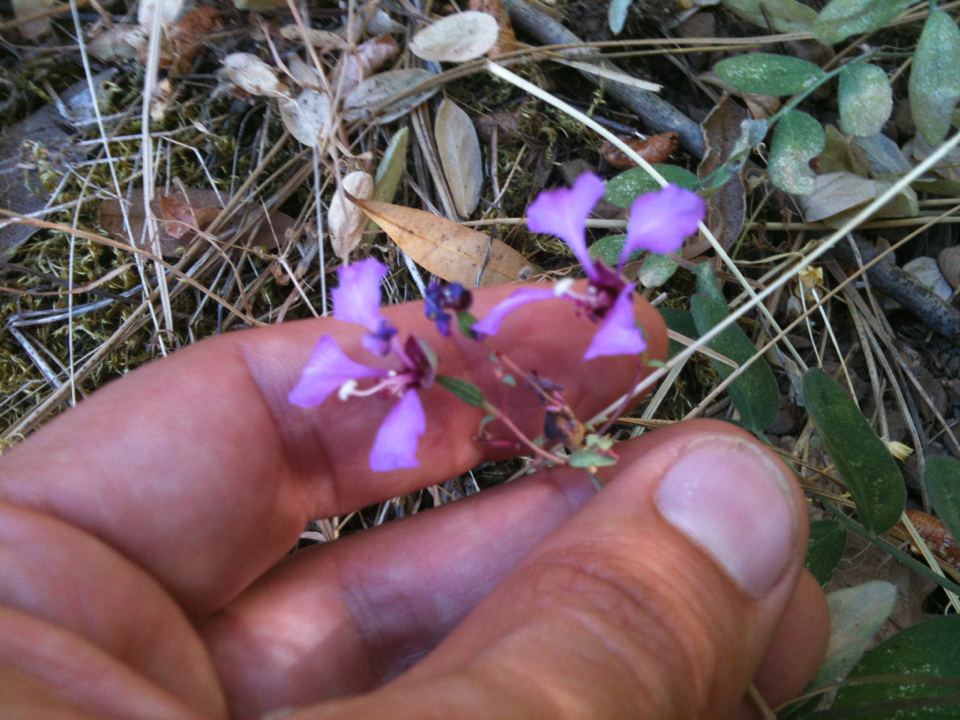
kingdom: Plantae
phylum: Tracheophyta
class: Magnoliopsida
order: Myrtales
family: Onagraceae
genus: Clarkia
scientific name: Clarkia unguiculata
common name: Clarkia
